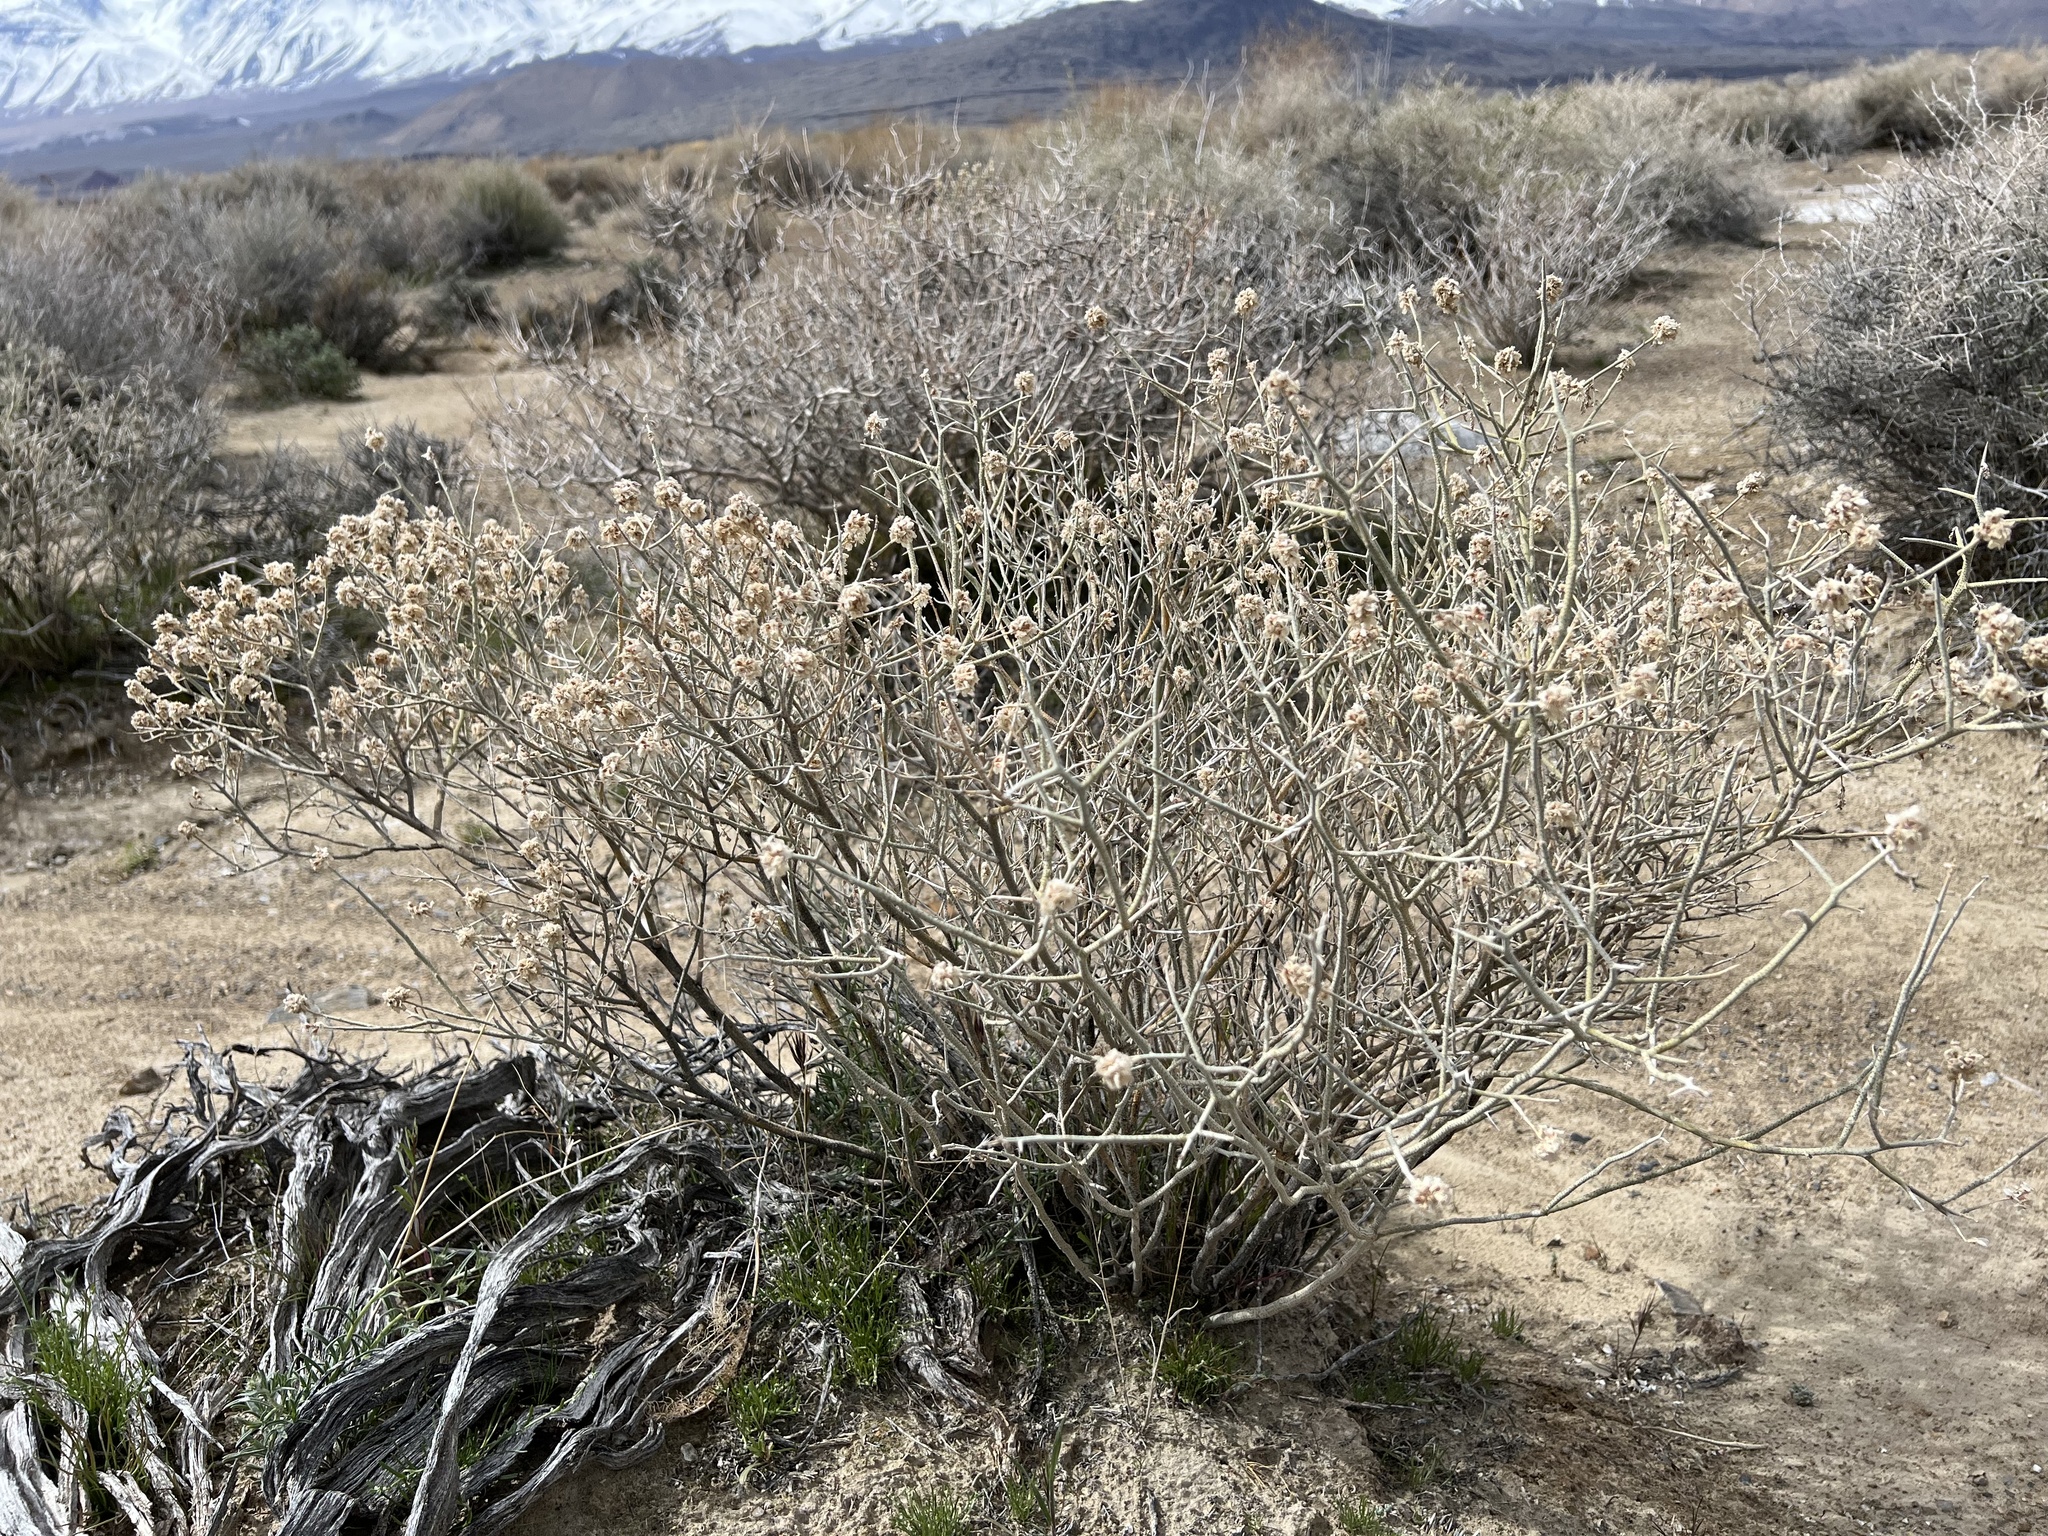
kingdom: Plantae
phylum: Tracheophyta
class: Magnoliopsida
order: Fabales
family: Fabaceae
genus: Psorothamnus
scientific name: Psorothamnus polydenius
